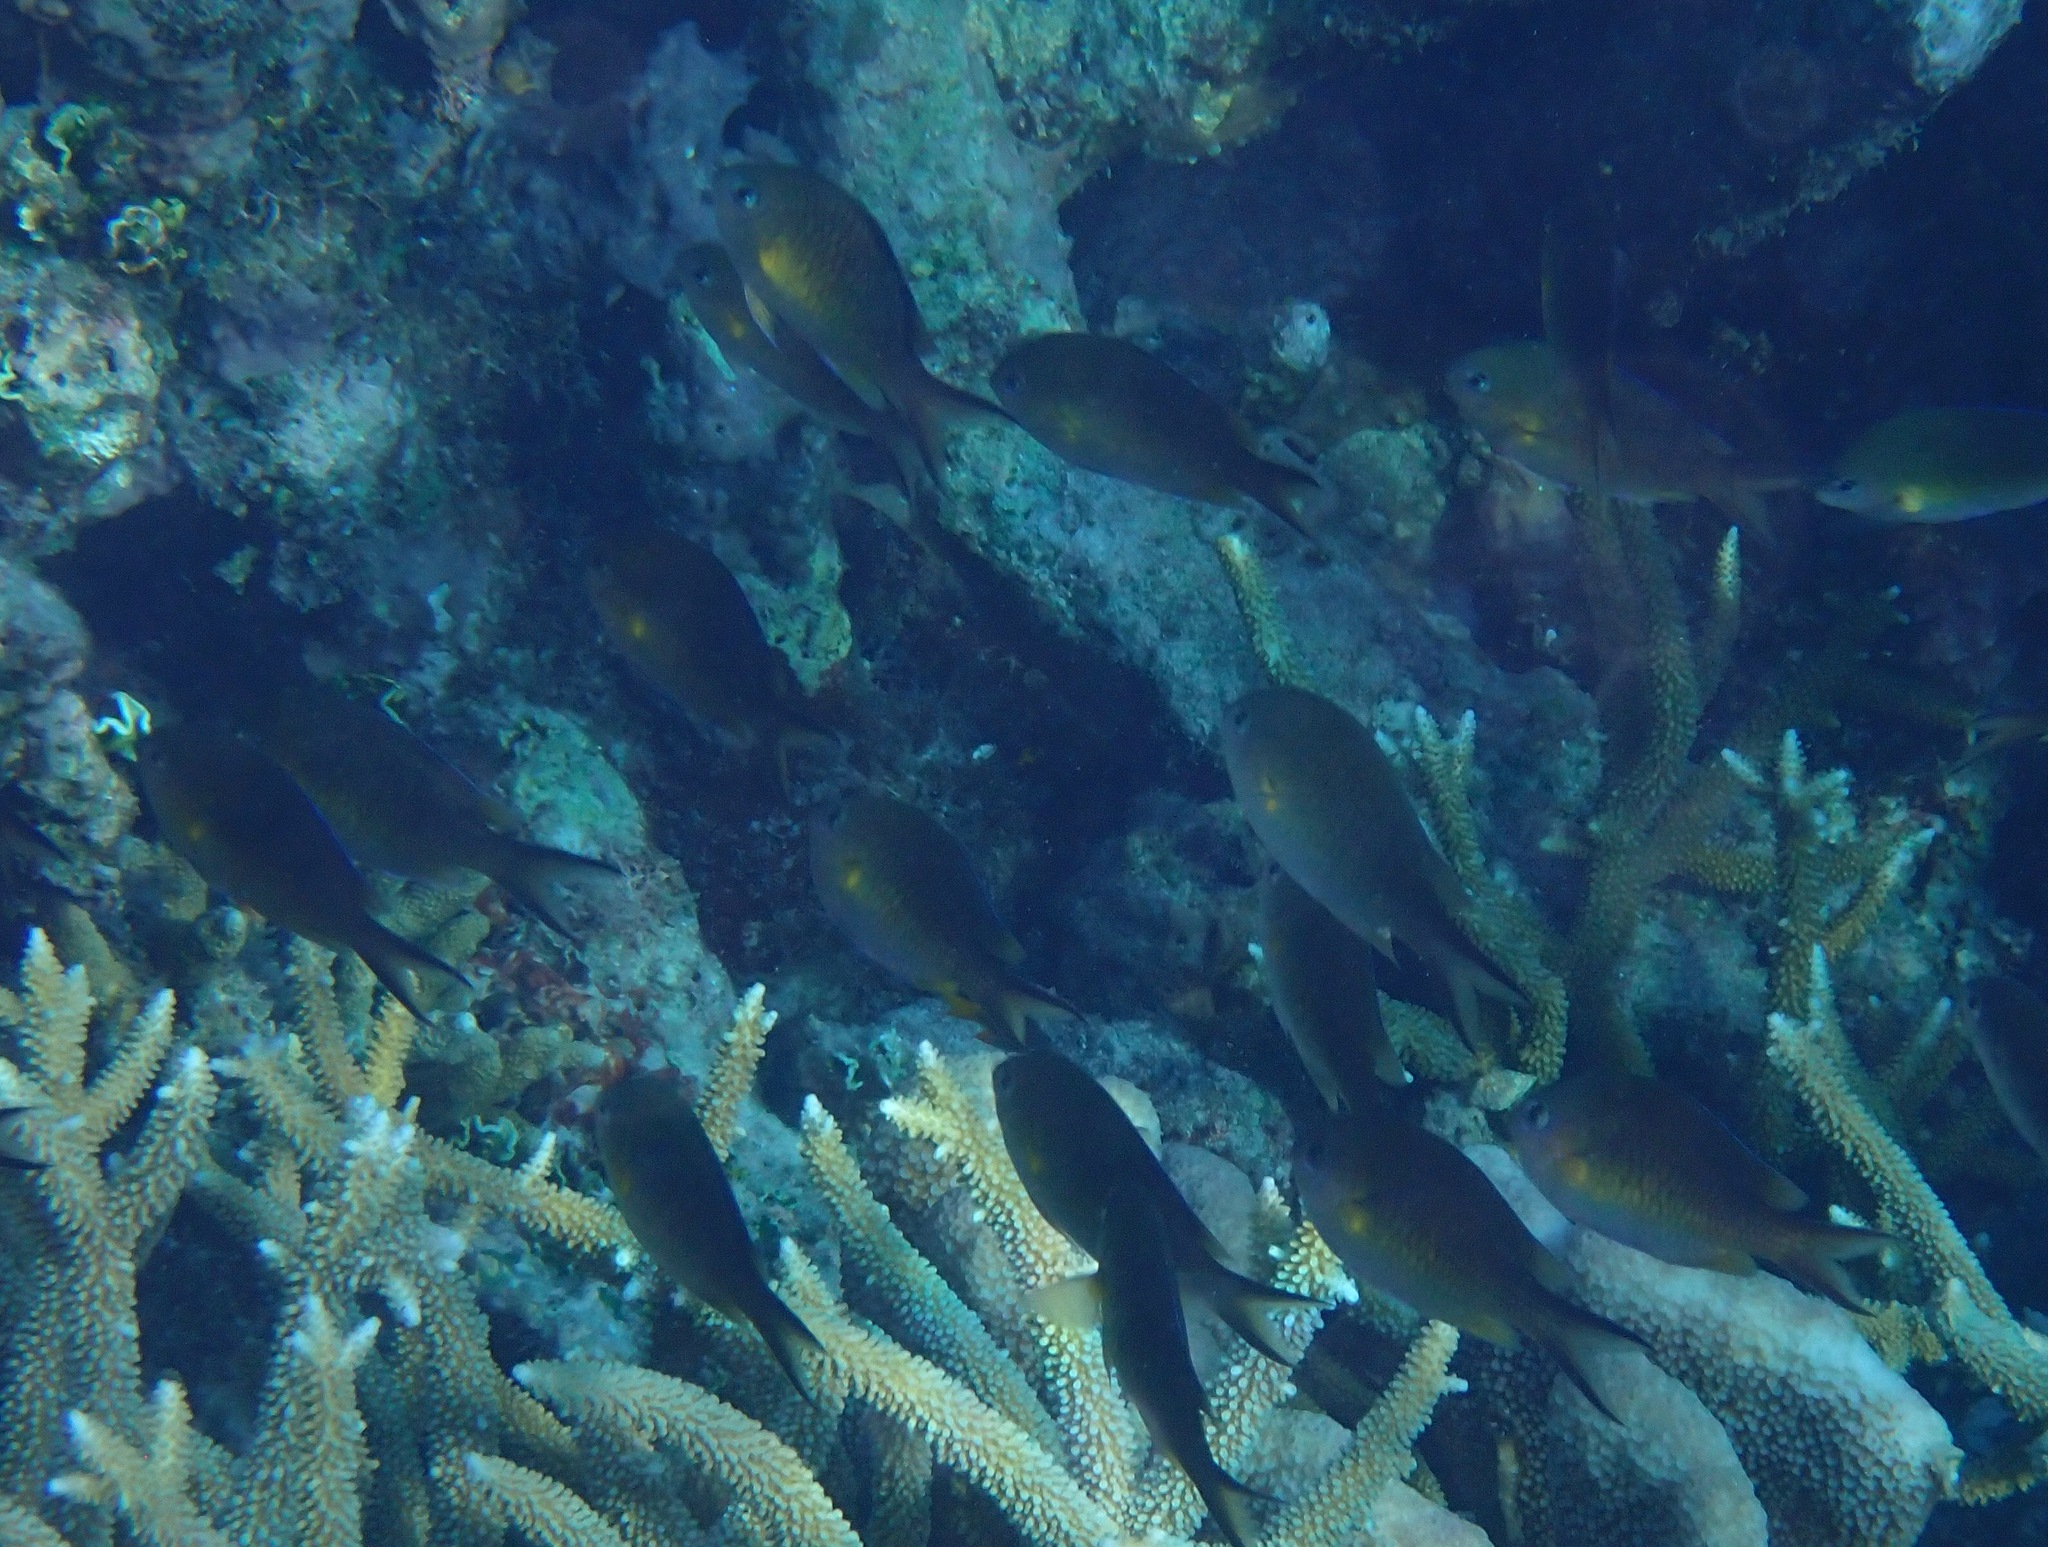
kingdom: Animalia
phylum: Chordata
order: Perciformes
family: Pomacentridae
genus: Chromis
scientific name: Chromis ternatensis
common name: Ternate chromis
